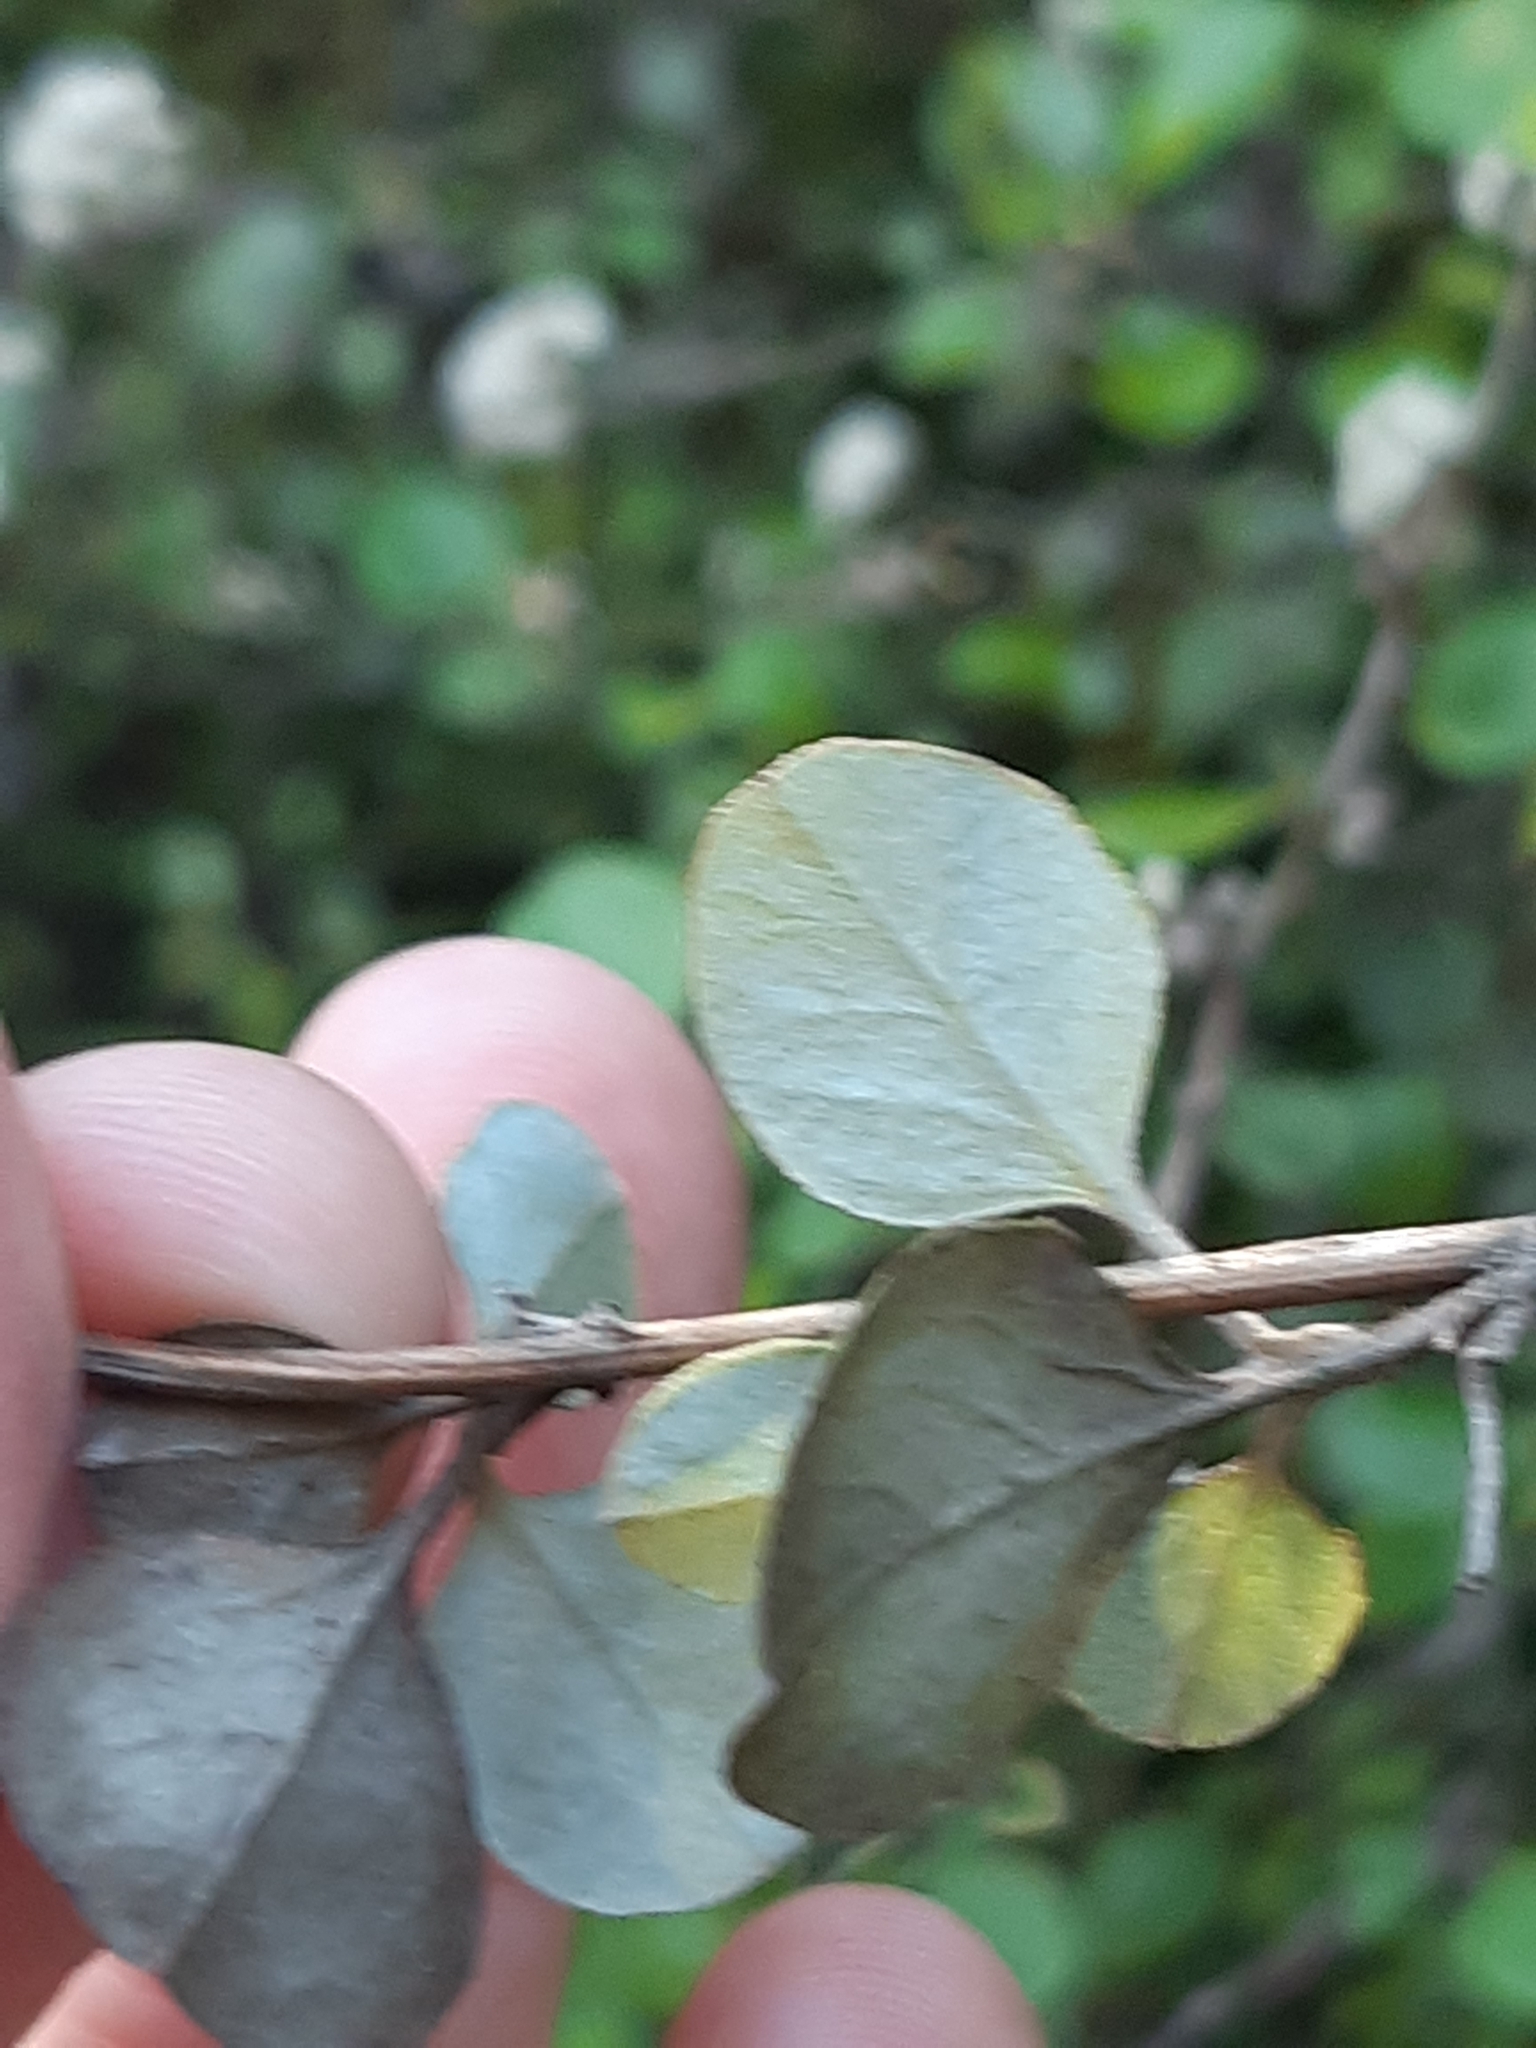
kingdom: Plantae
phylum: Tracheophyta
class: Magnoliopsida
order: Asterales
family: Asteraceae
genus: Ozothamnus
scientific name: Ozothamnus glomeratus
